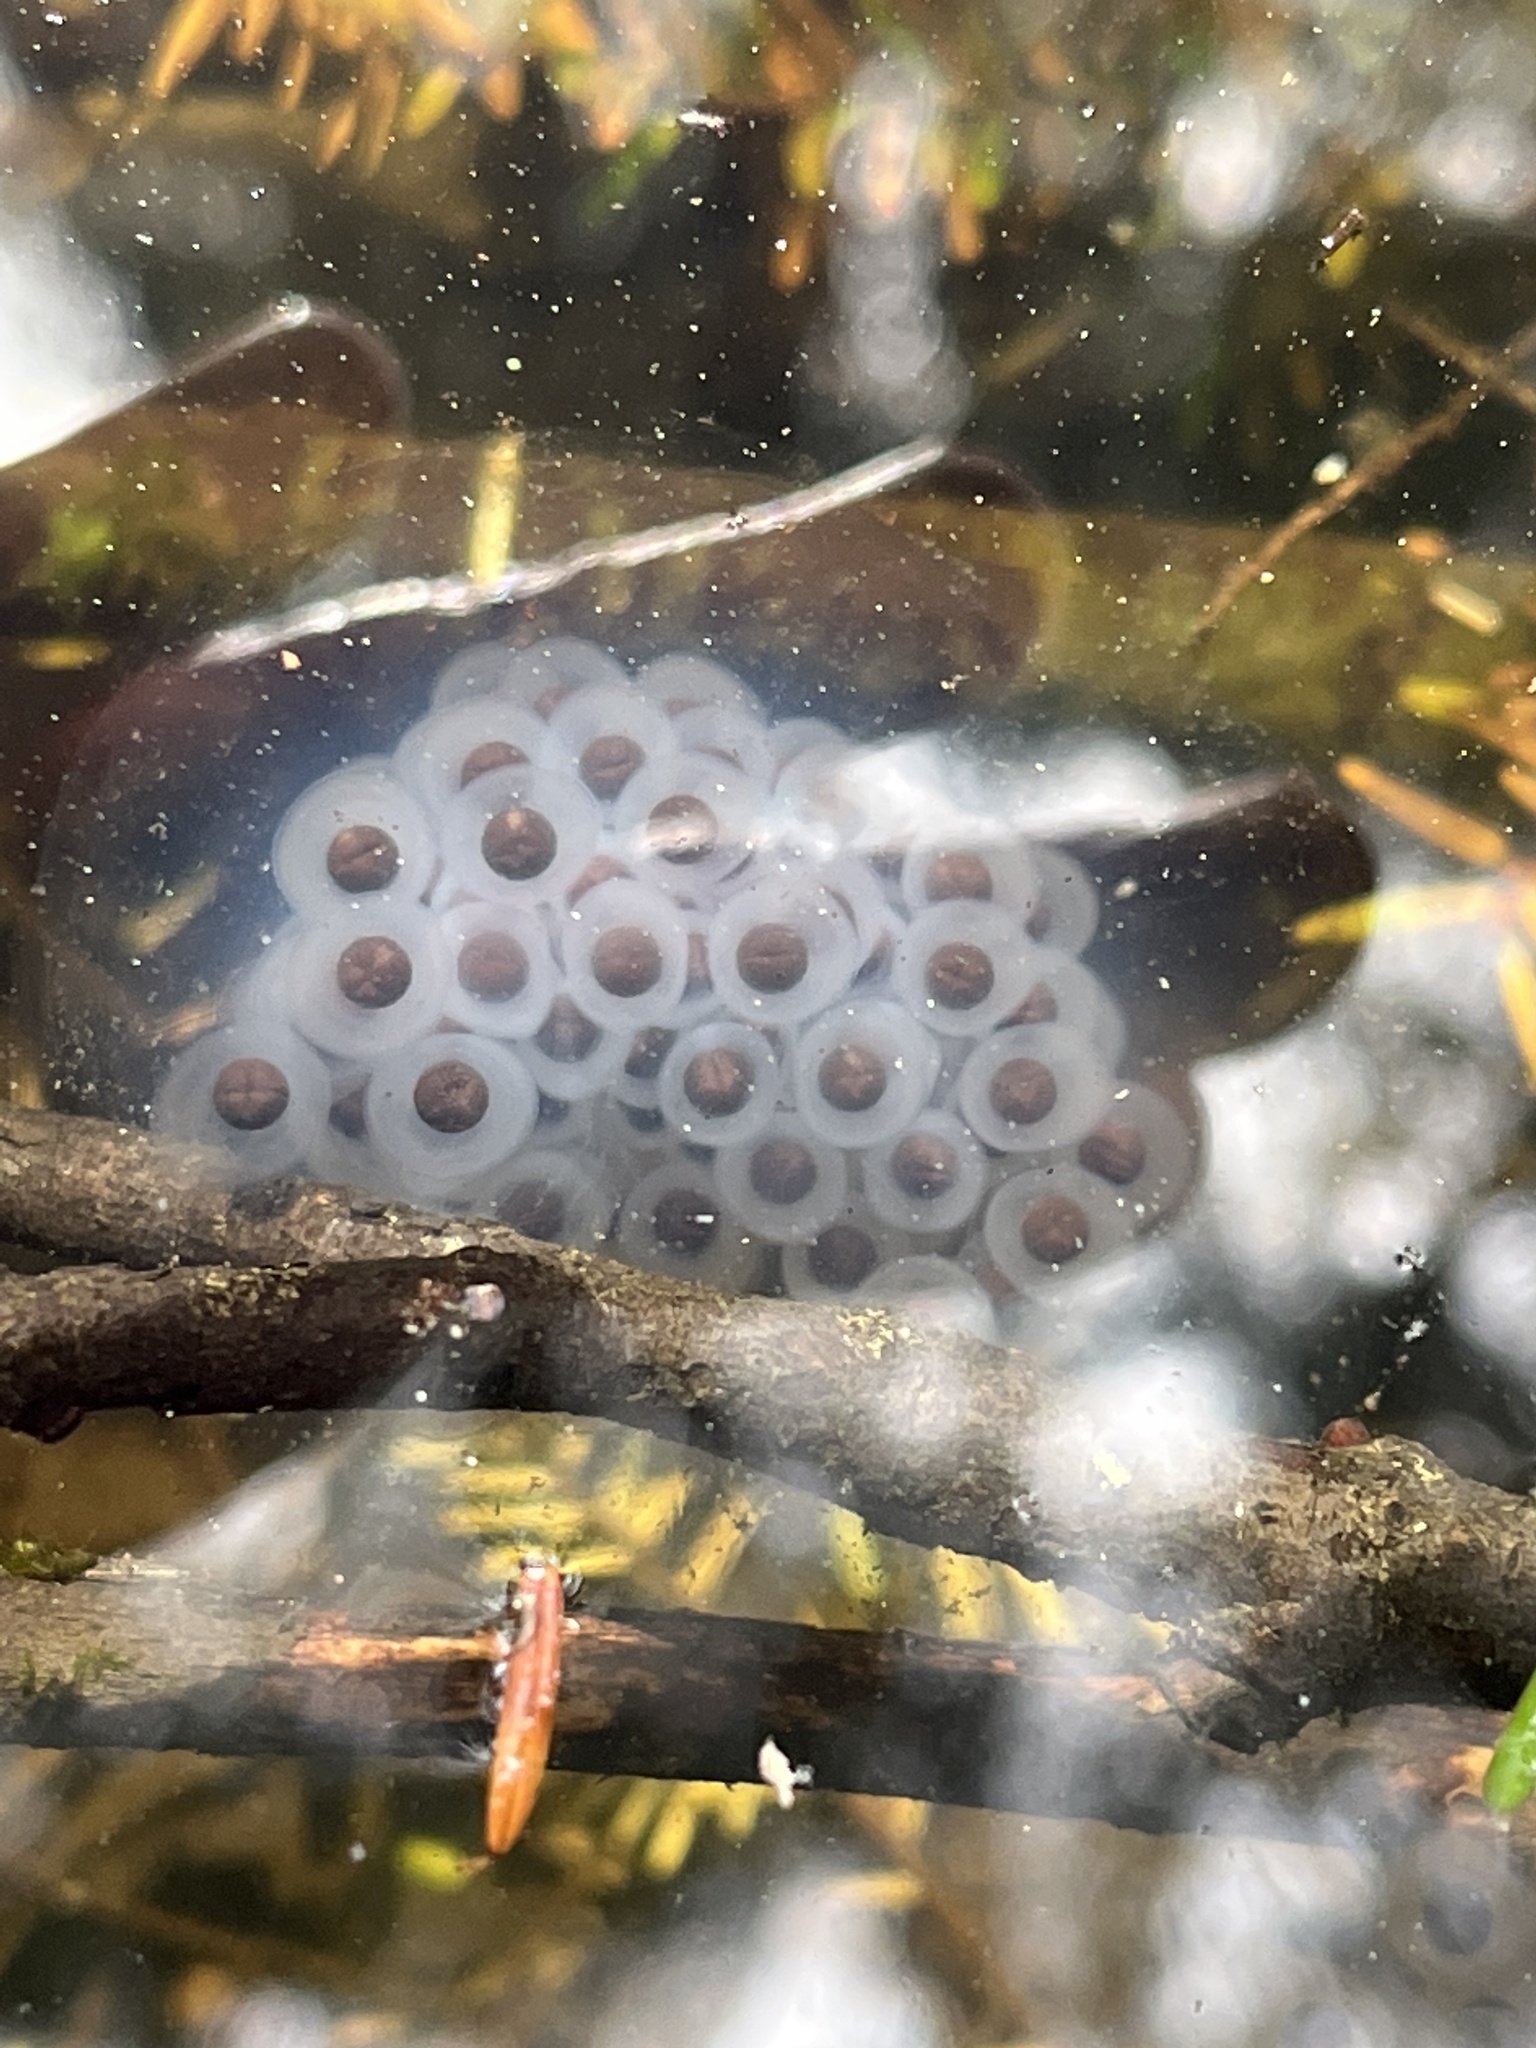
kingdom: Animalia
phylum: Chordata
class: Amphibia
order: Caudata
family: Ambystomatidae
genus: Ambystoma
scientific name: Ambystoma maculatum
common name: Spotted salamander
